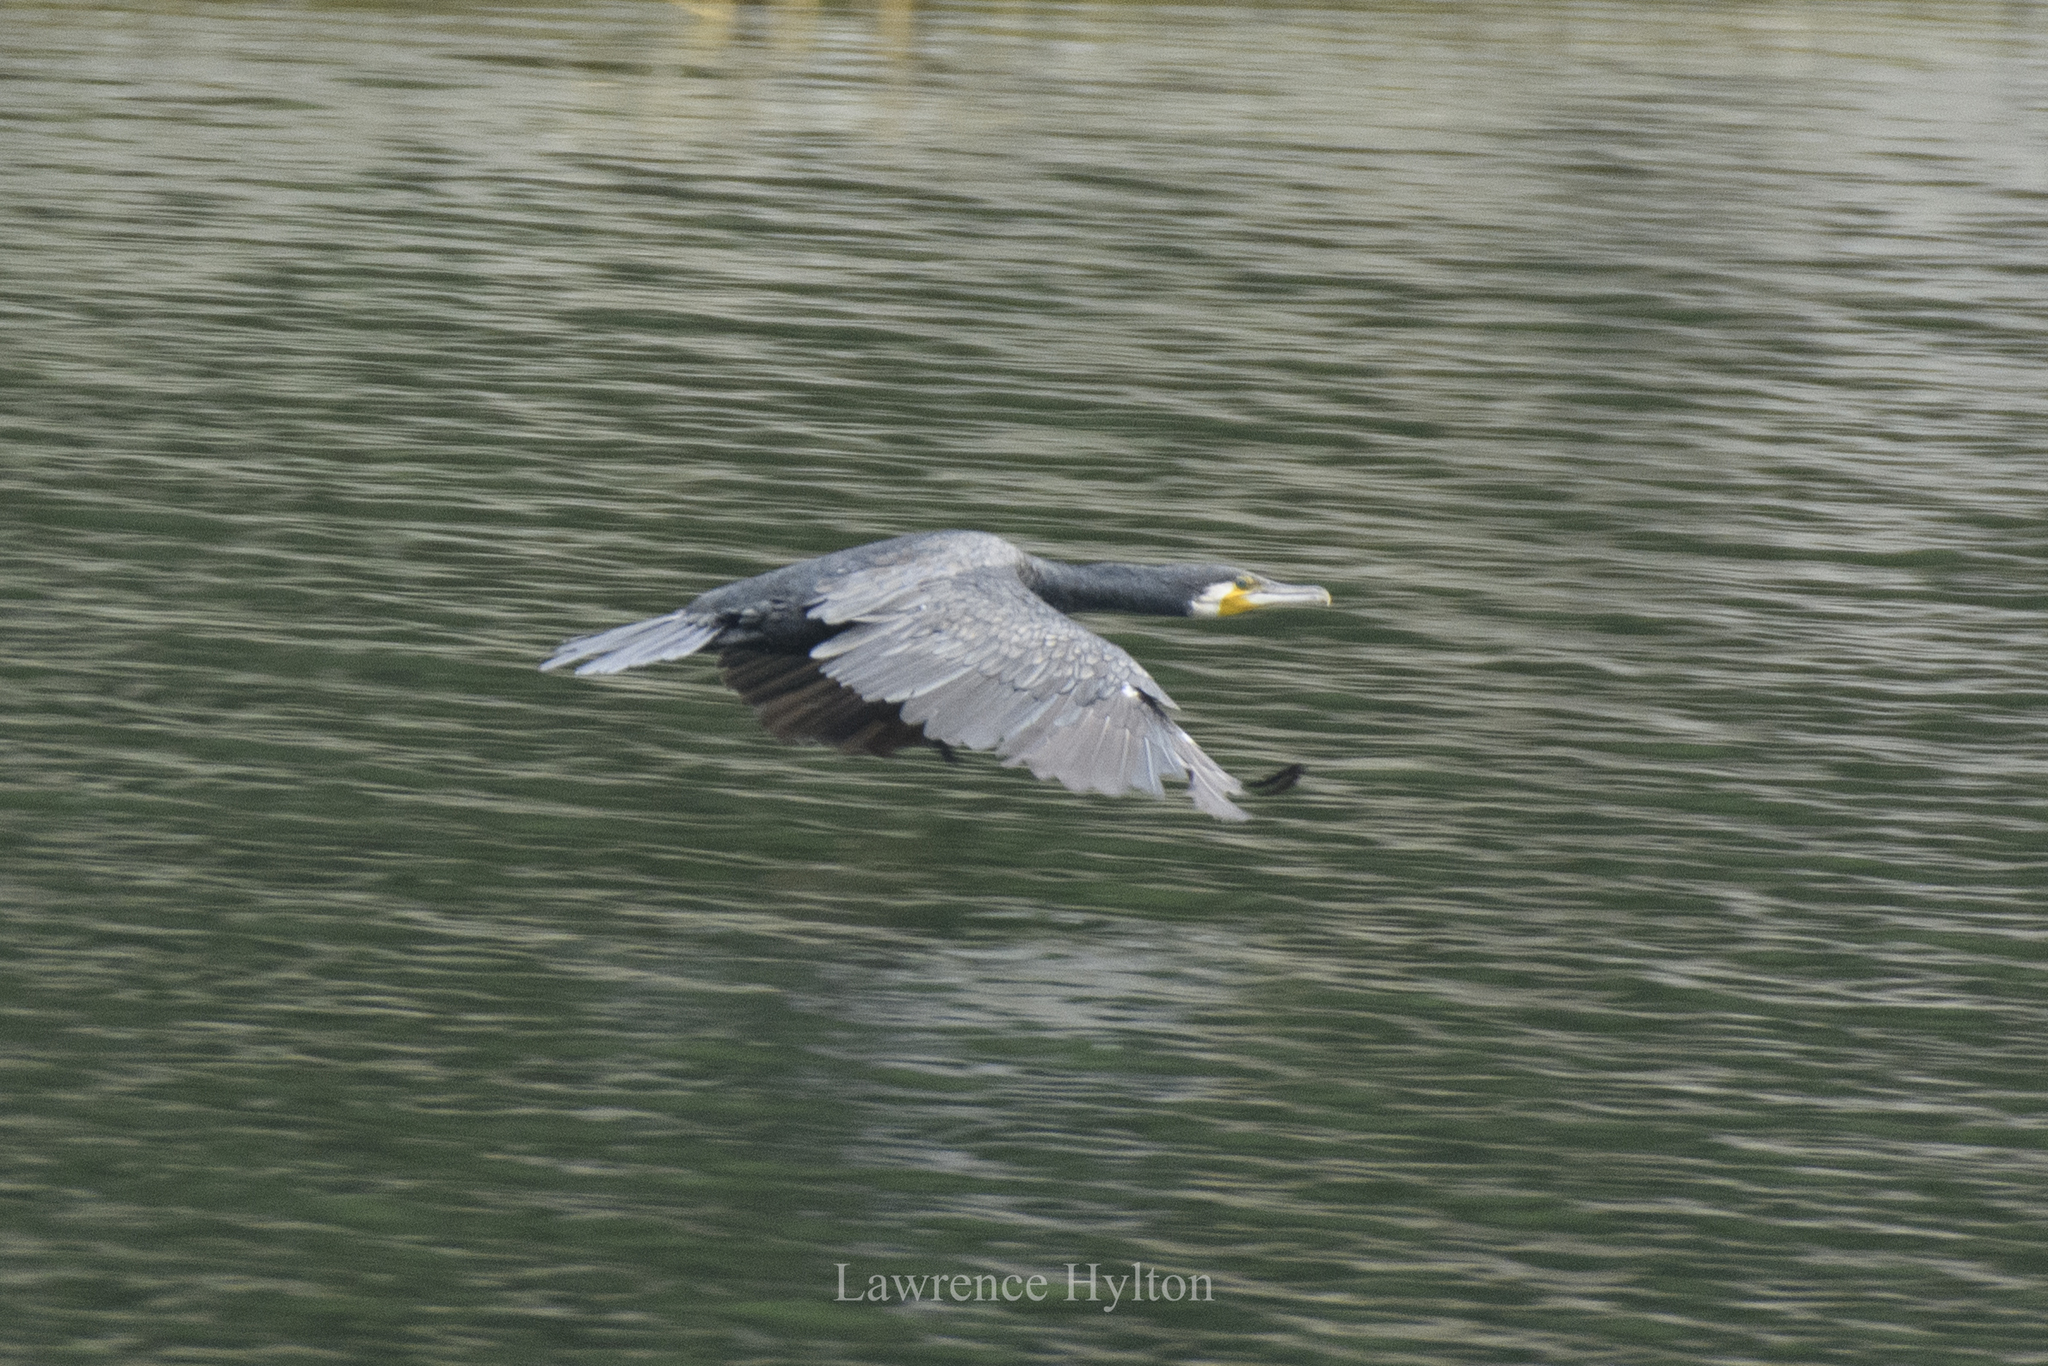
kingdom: Animalia
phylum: Chordata
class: Aves
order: Suliformes
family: Phalacrocoracidae
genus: Phalacrocorax
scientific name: Phalacrocorax carbo
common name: Great cormorant
